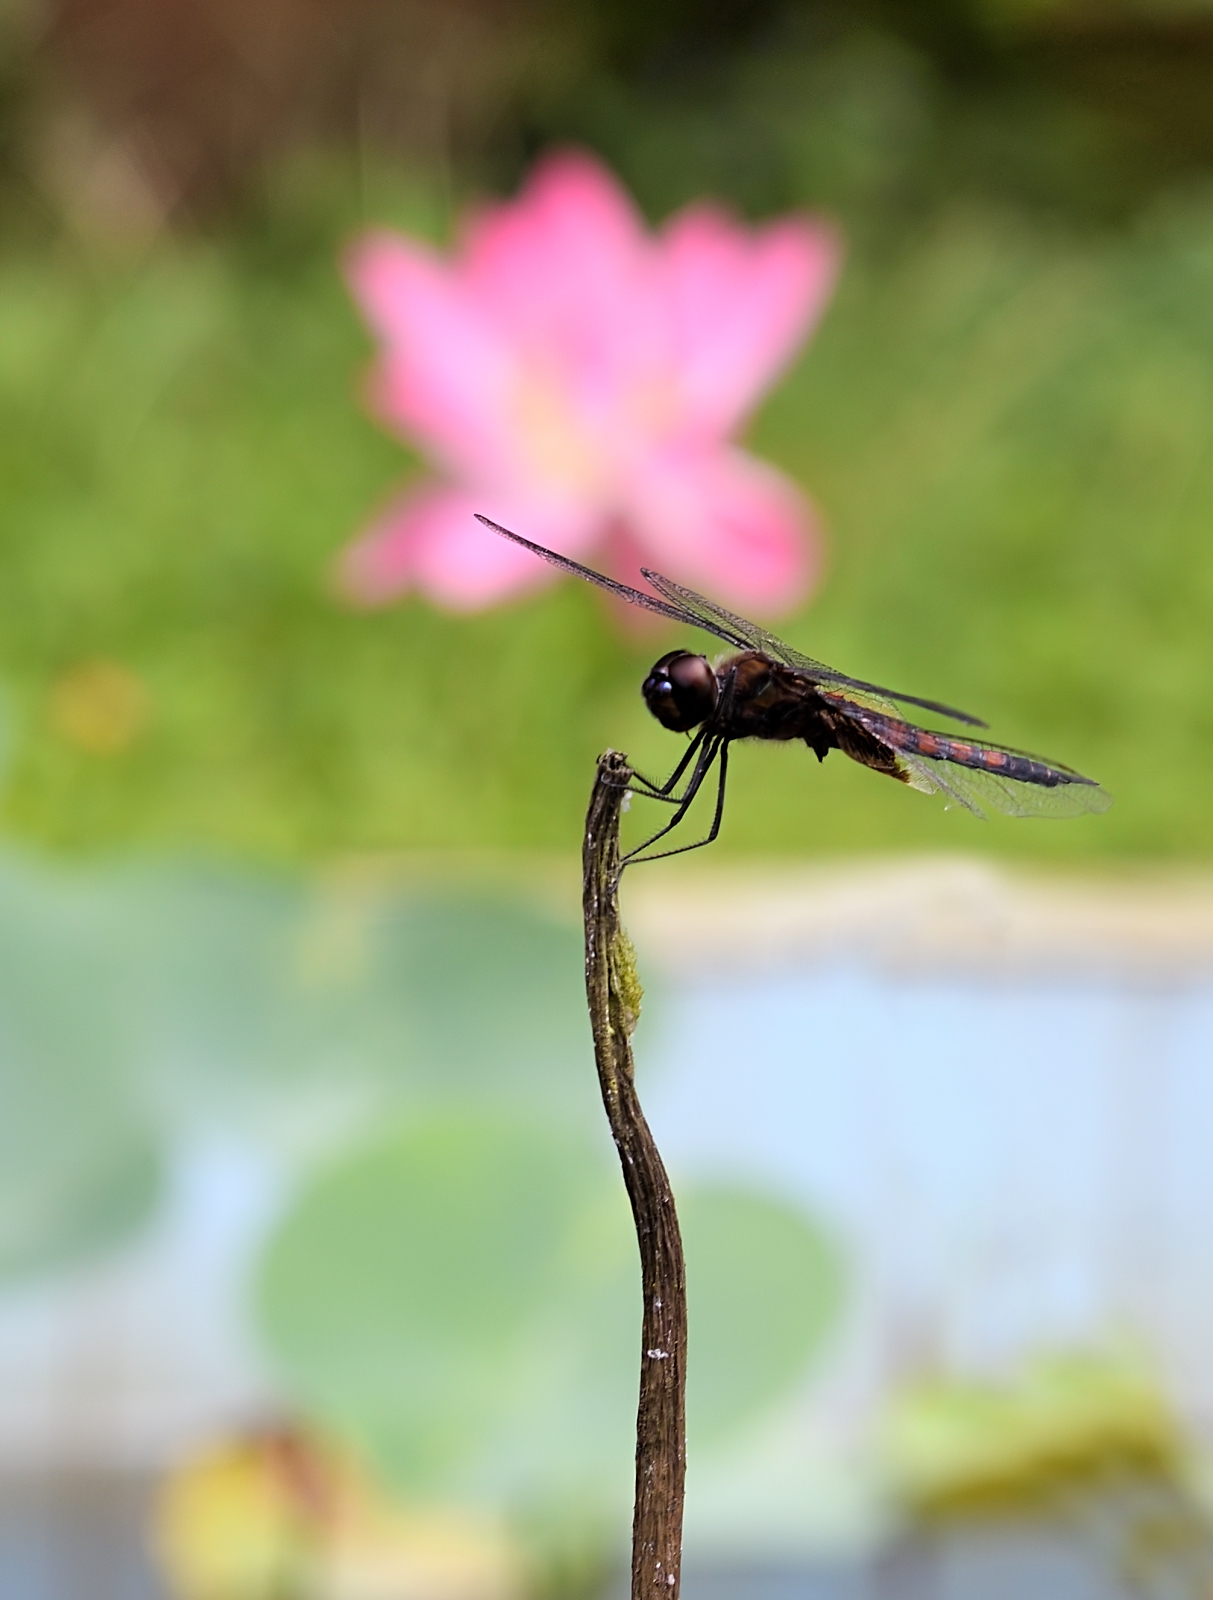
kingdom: Animalia
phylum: Arthropoda
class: Insecta
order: Odonata
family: Libellulidae
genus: Tramea
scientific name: Tramea limbata
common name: Ferruginous glider
